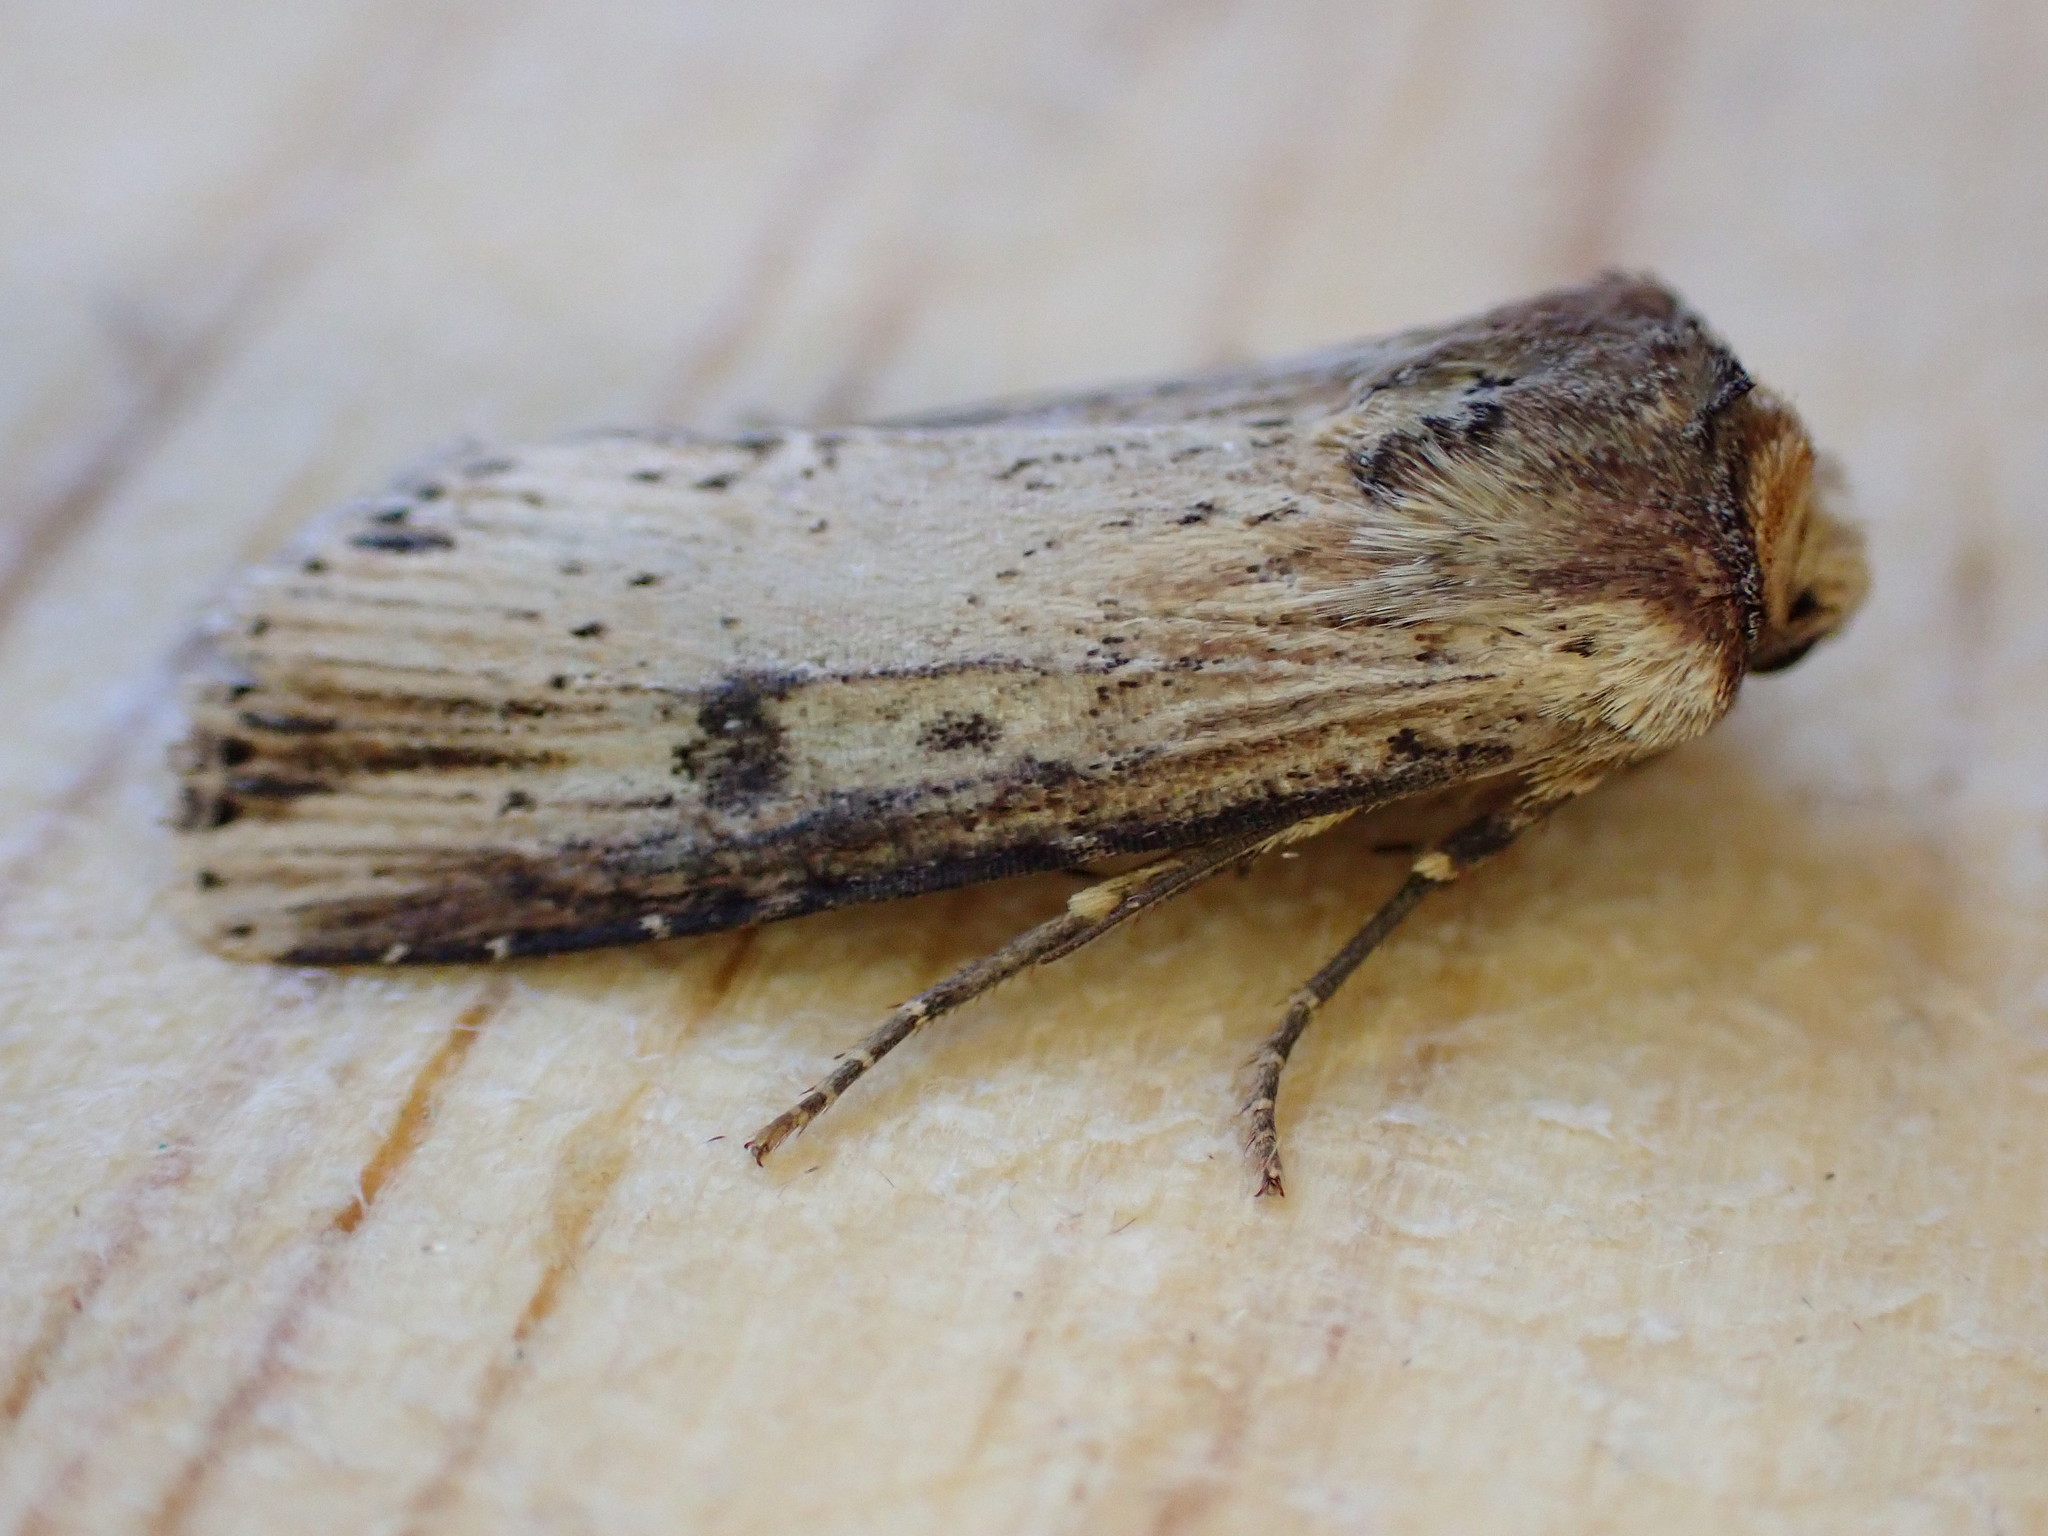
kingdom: Animalia
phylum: Arthropoda
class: Insecta
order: Lepidoptera
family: Noctuidae
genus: Axylia
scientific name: Axylia putris
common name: Flame
